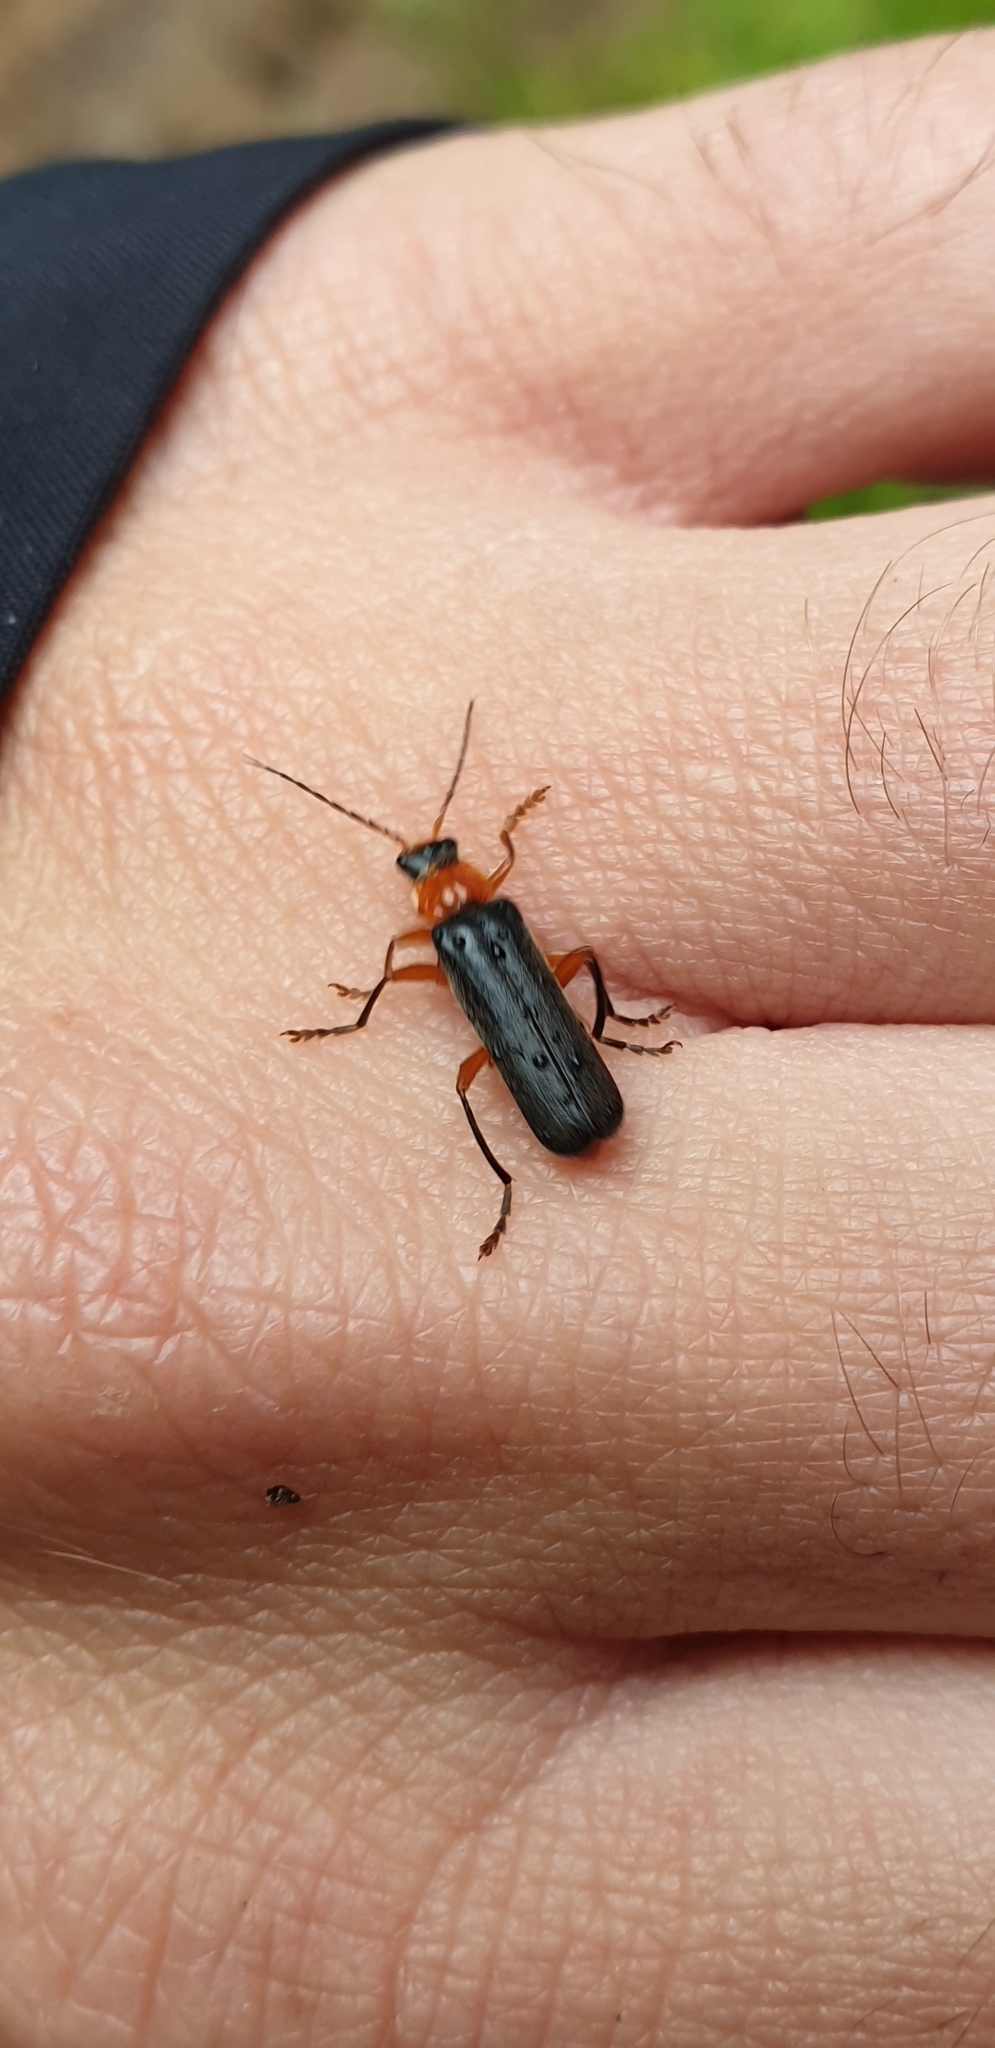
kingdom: Animalia
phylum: Arthropoda
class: Insecta
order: Coleoptera
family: Cantharidae
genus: Cantharis
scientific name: Cantharis pellucida
